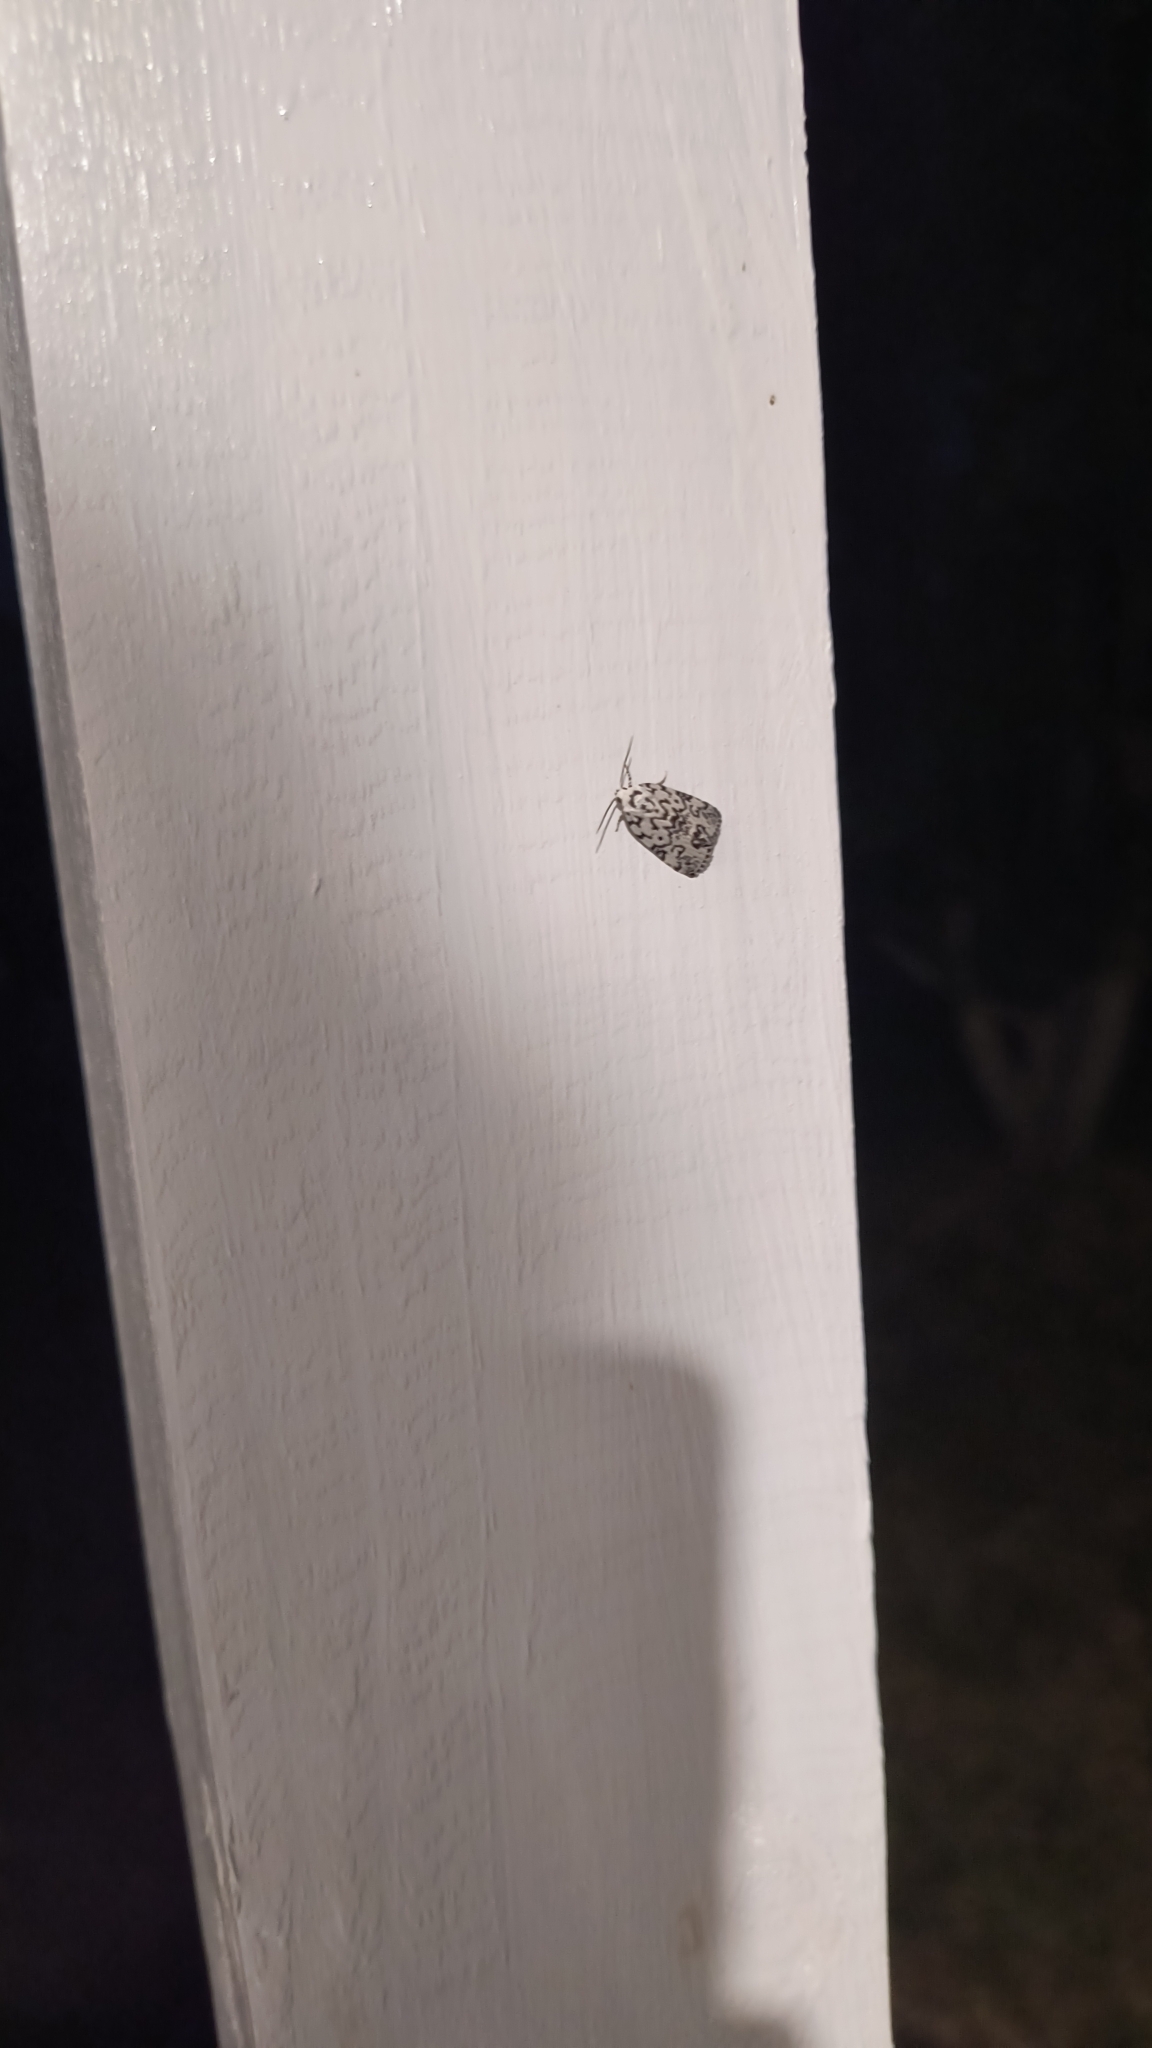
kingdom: Animalia
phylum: Arthropoda
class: Insecta
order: Lepidoptera
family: Noctuidae
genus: Polygrammate
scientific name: Polygrammate hebraeicum
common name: Hebrew moth
